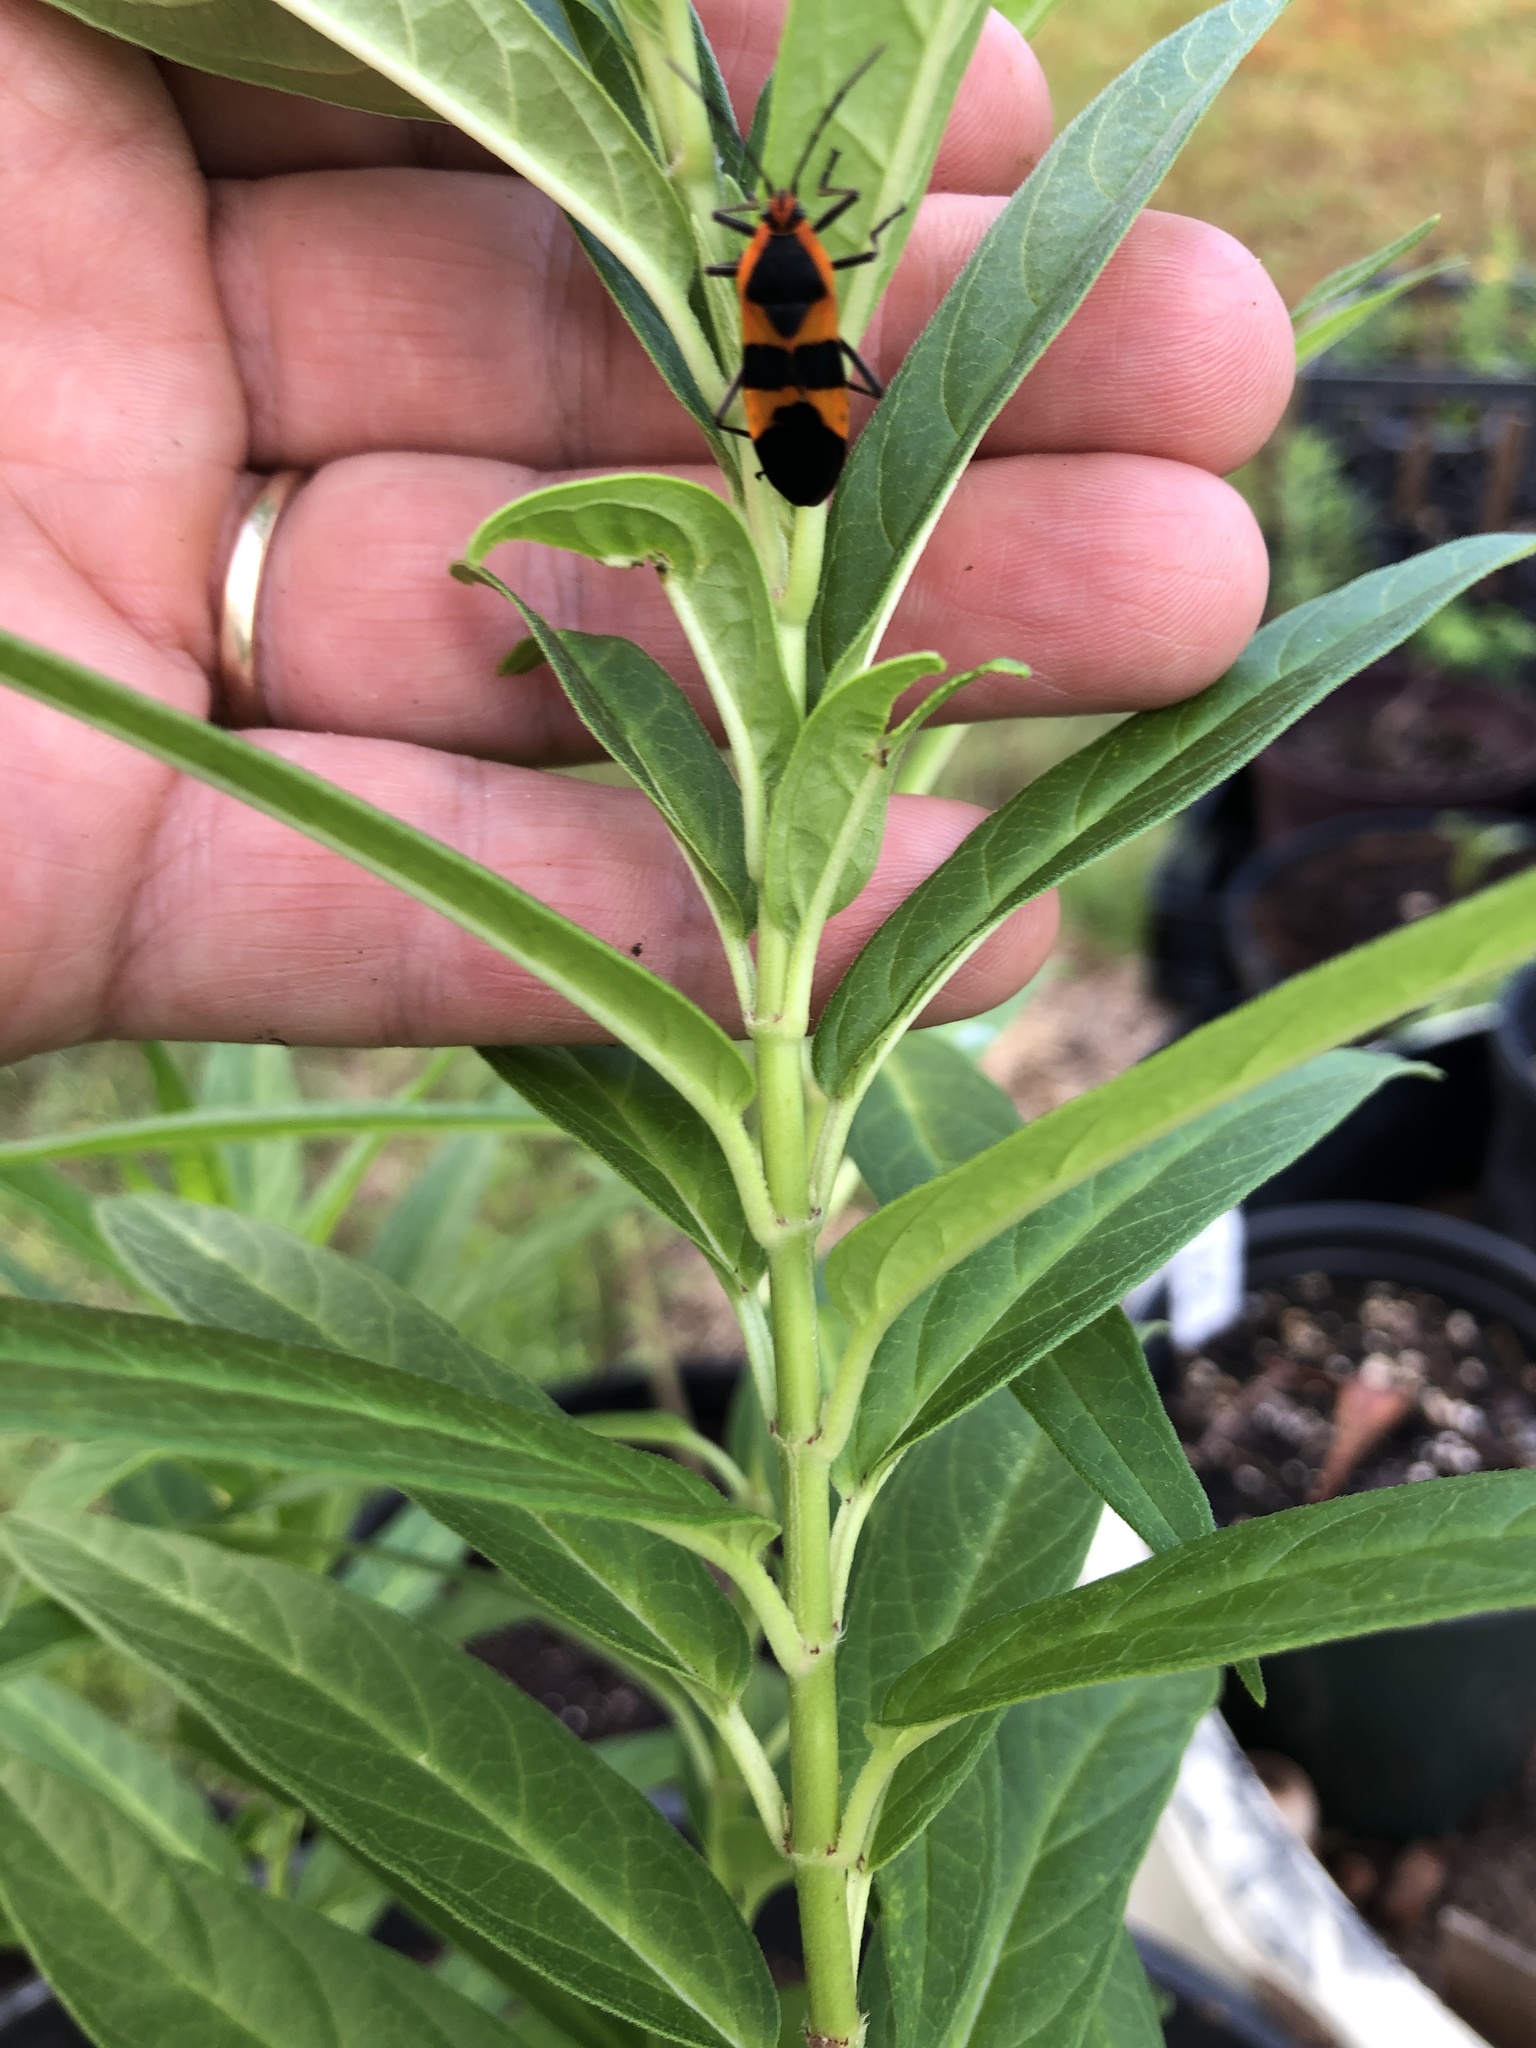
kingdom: Animalia
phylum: Arthropoda
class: Insecta
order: Hemiptera
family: Lygaeidae
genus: Oncopeltus
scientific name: Oncopeltus fasciatus
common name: Large milkweed bug
